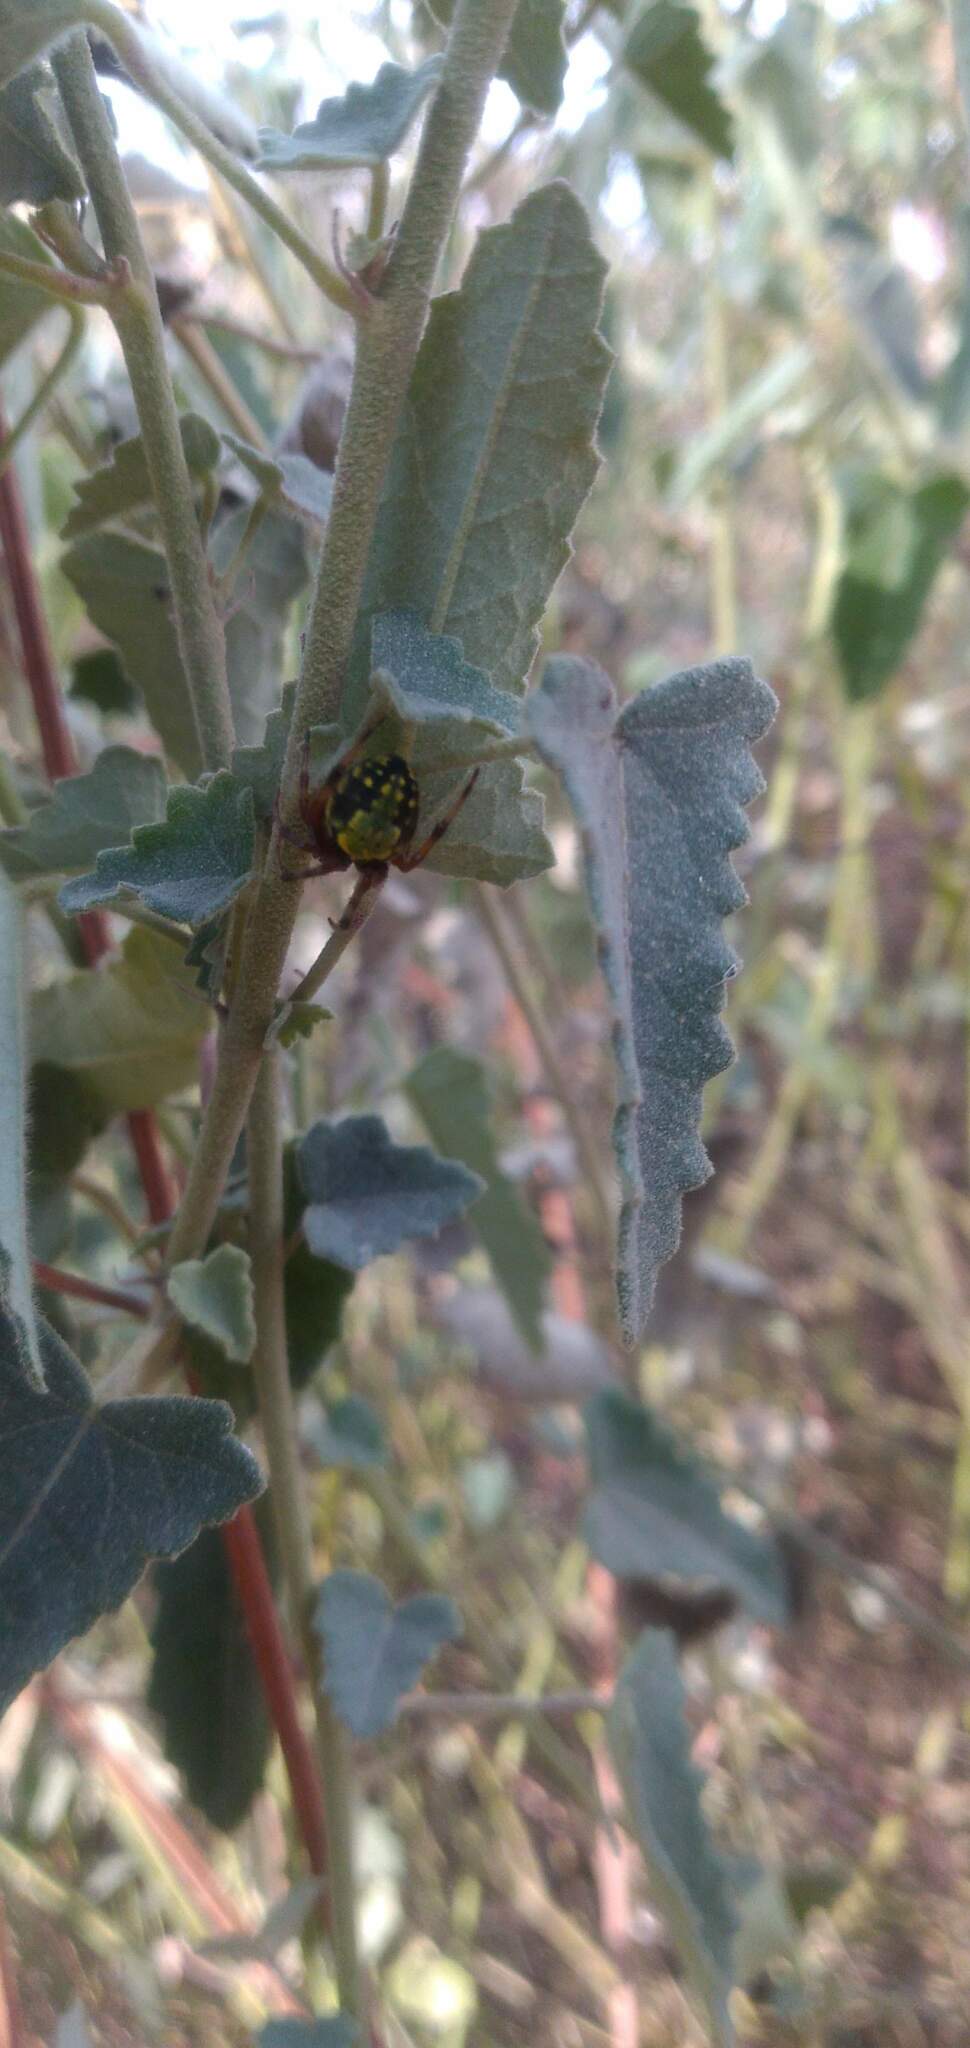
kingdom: Animalia
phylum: Arthropoda
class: Arachnida
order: Araneae
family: Araneidae
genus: Araneus
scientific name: Araneus workmani
